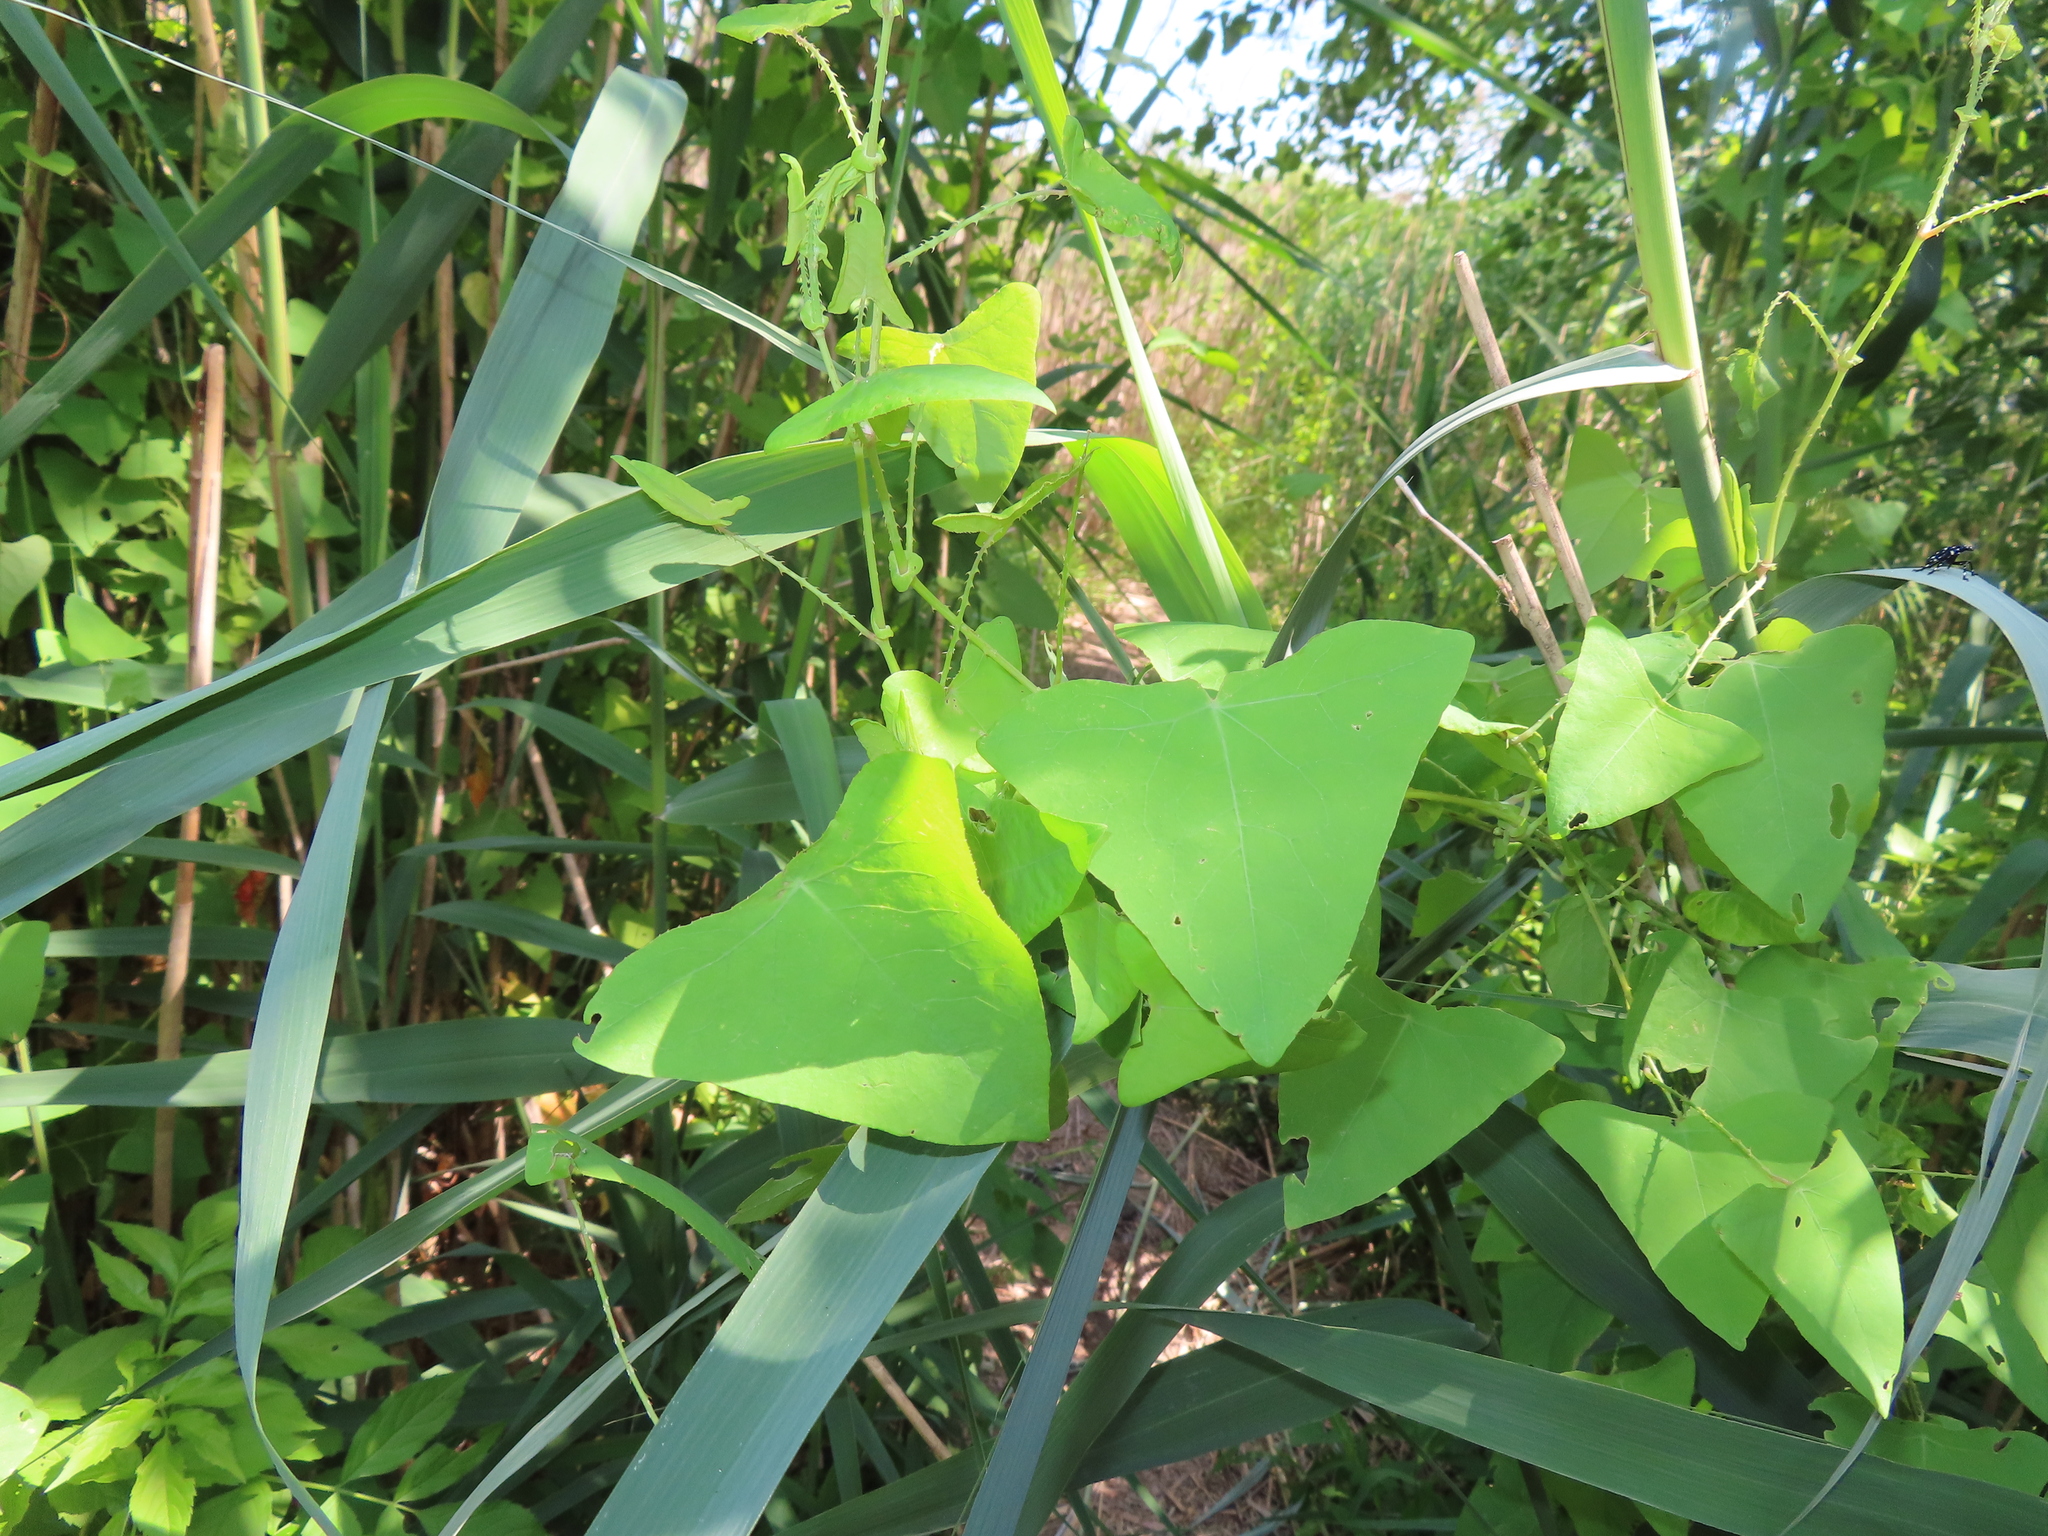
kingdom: Plantae
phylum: Tracheophyta
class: Magnoliopsida
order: Caryophyllales
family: Polygonaceae
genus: Persicaria
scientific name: Persicaria perfoliata
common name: Asiatic tearthumb
